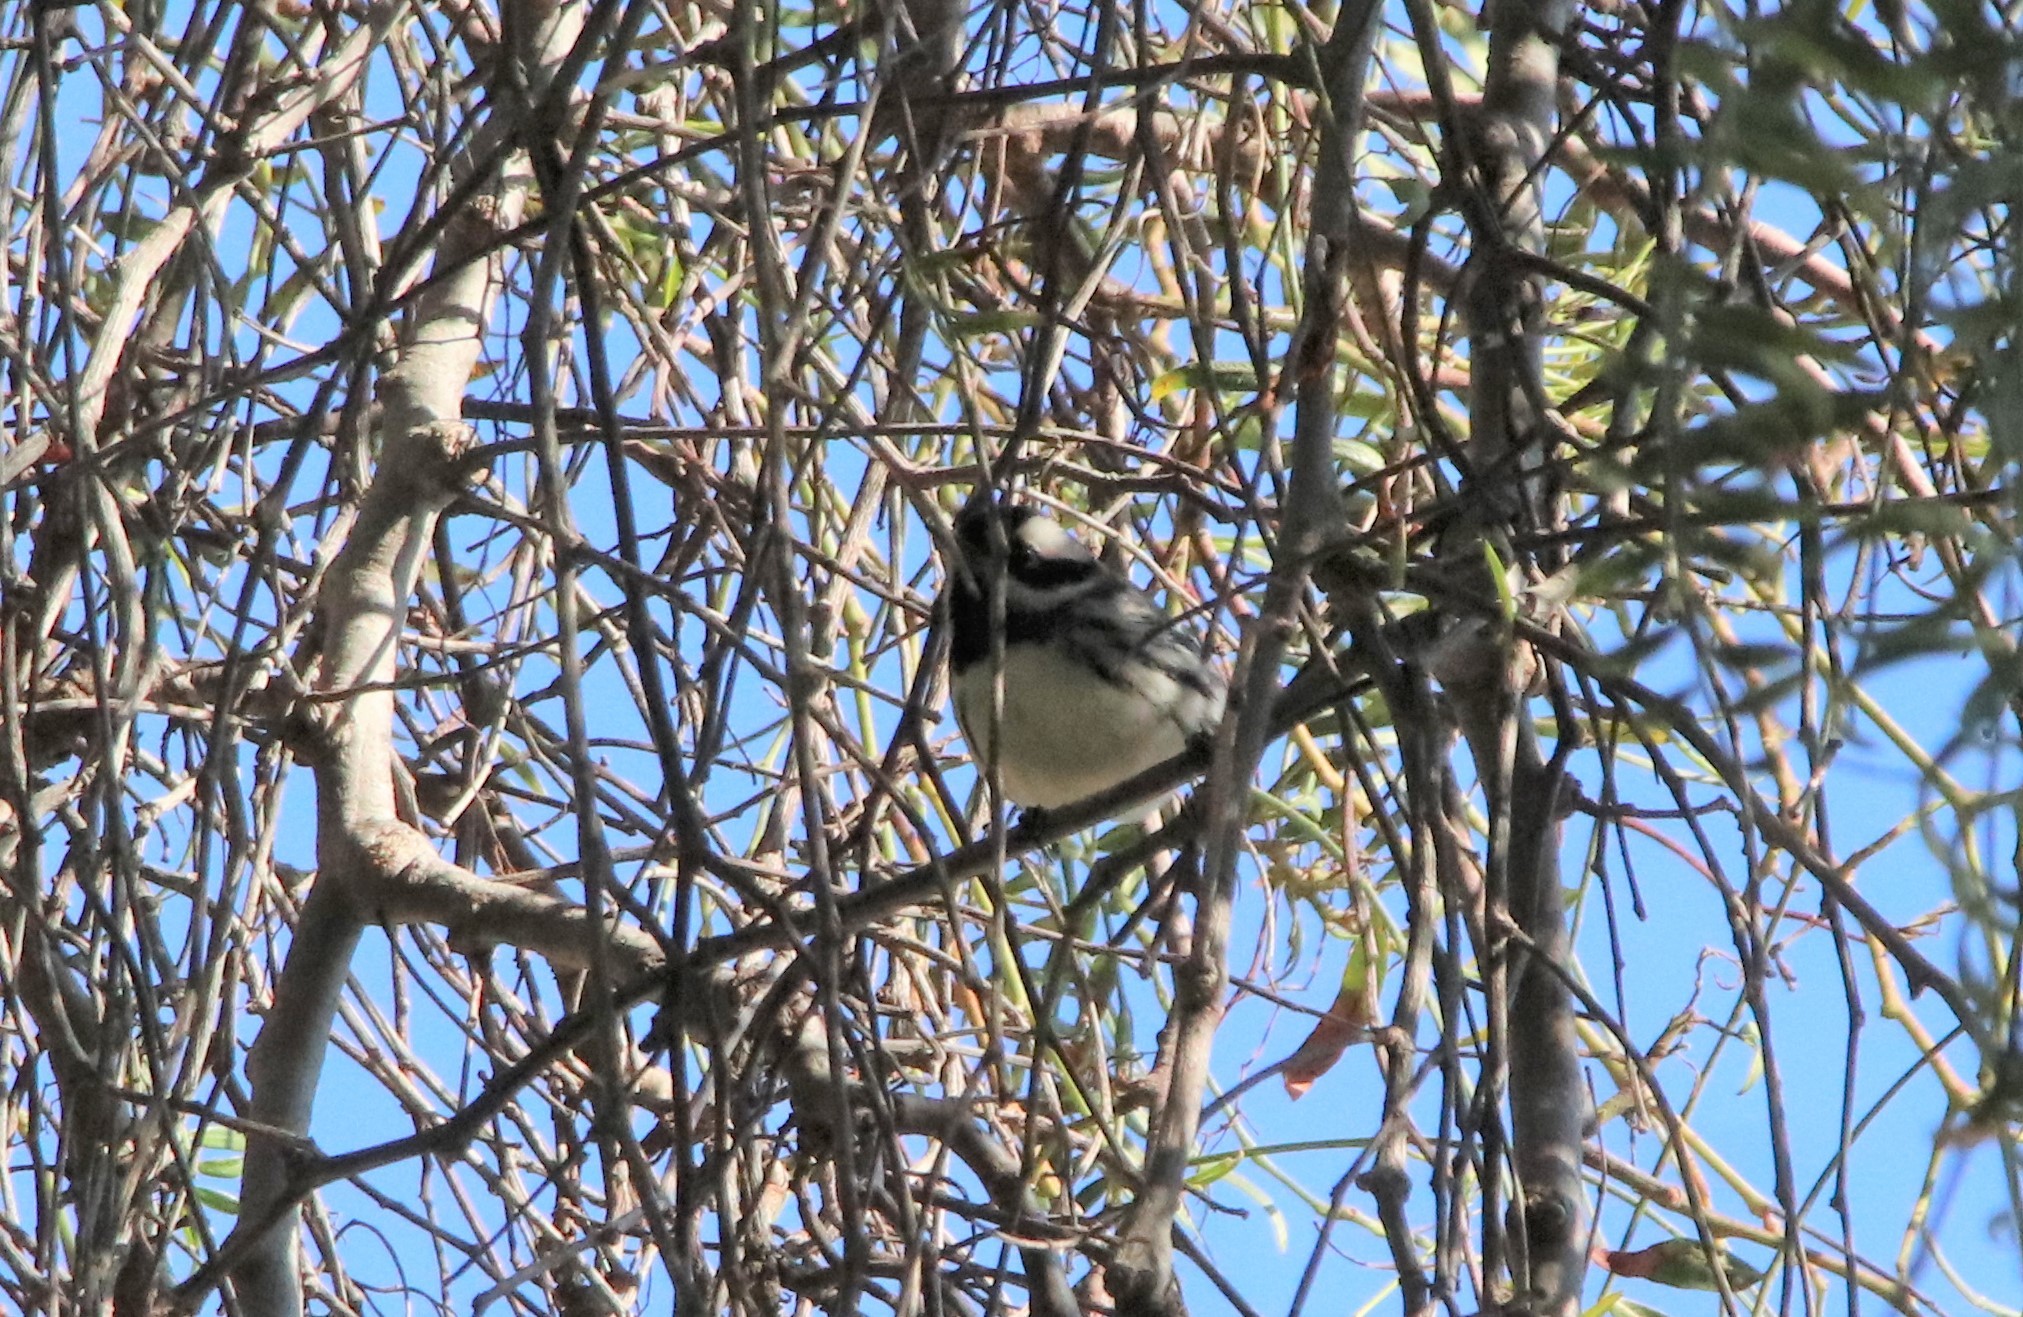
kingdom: Animalia
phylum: Chordata
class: Aves
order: Passeriformes
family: Parulidae
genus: Setophaga
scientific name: Setophaga nigrescens
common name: Black-throated gray warbler
